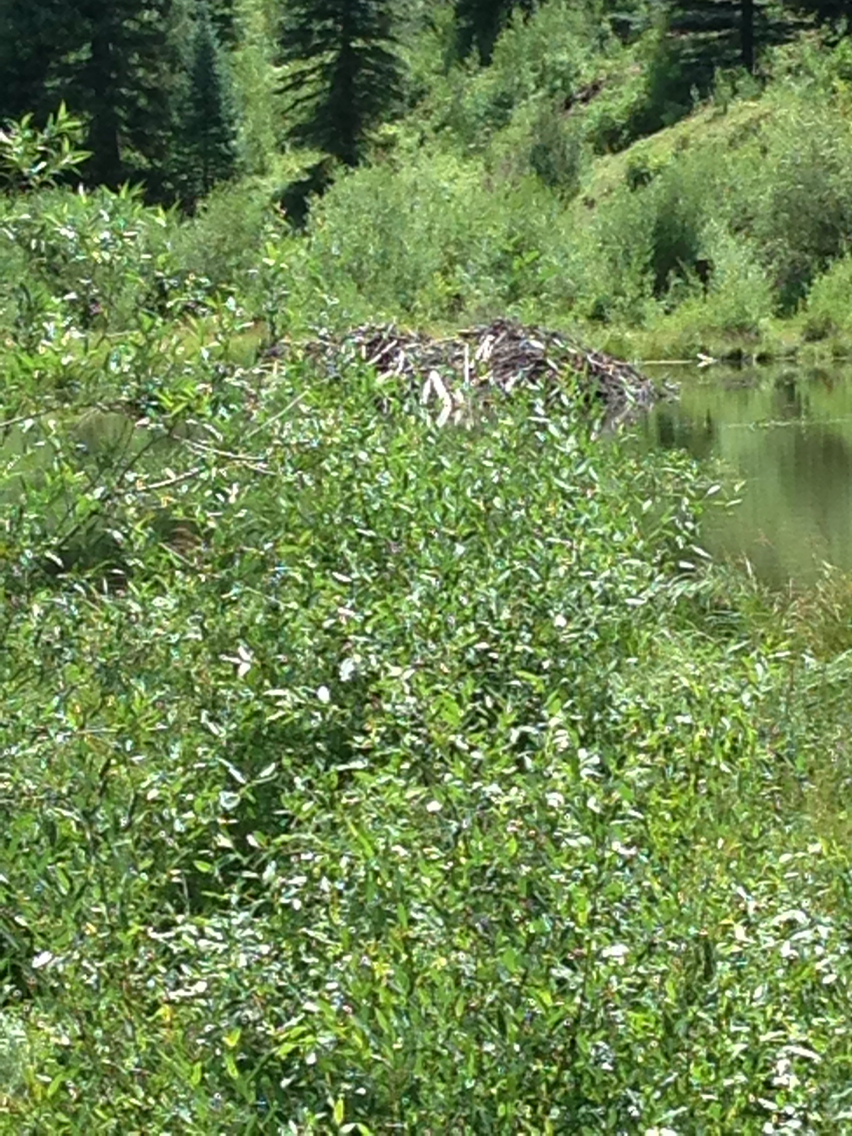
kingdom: Animalia
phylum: Chordata
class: Mammalia
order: Rodentia
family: Castoridae
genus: Castor
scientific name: Castor canadensis
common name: American beaver
